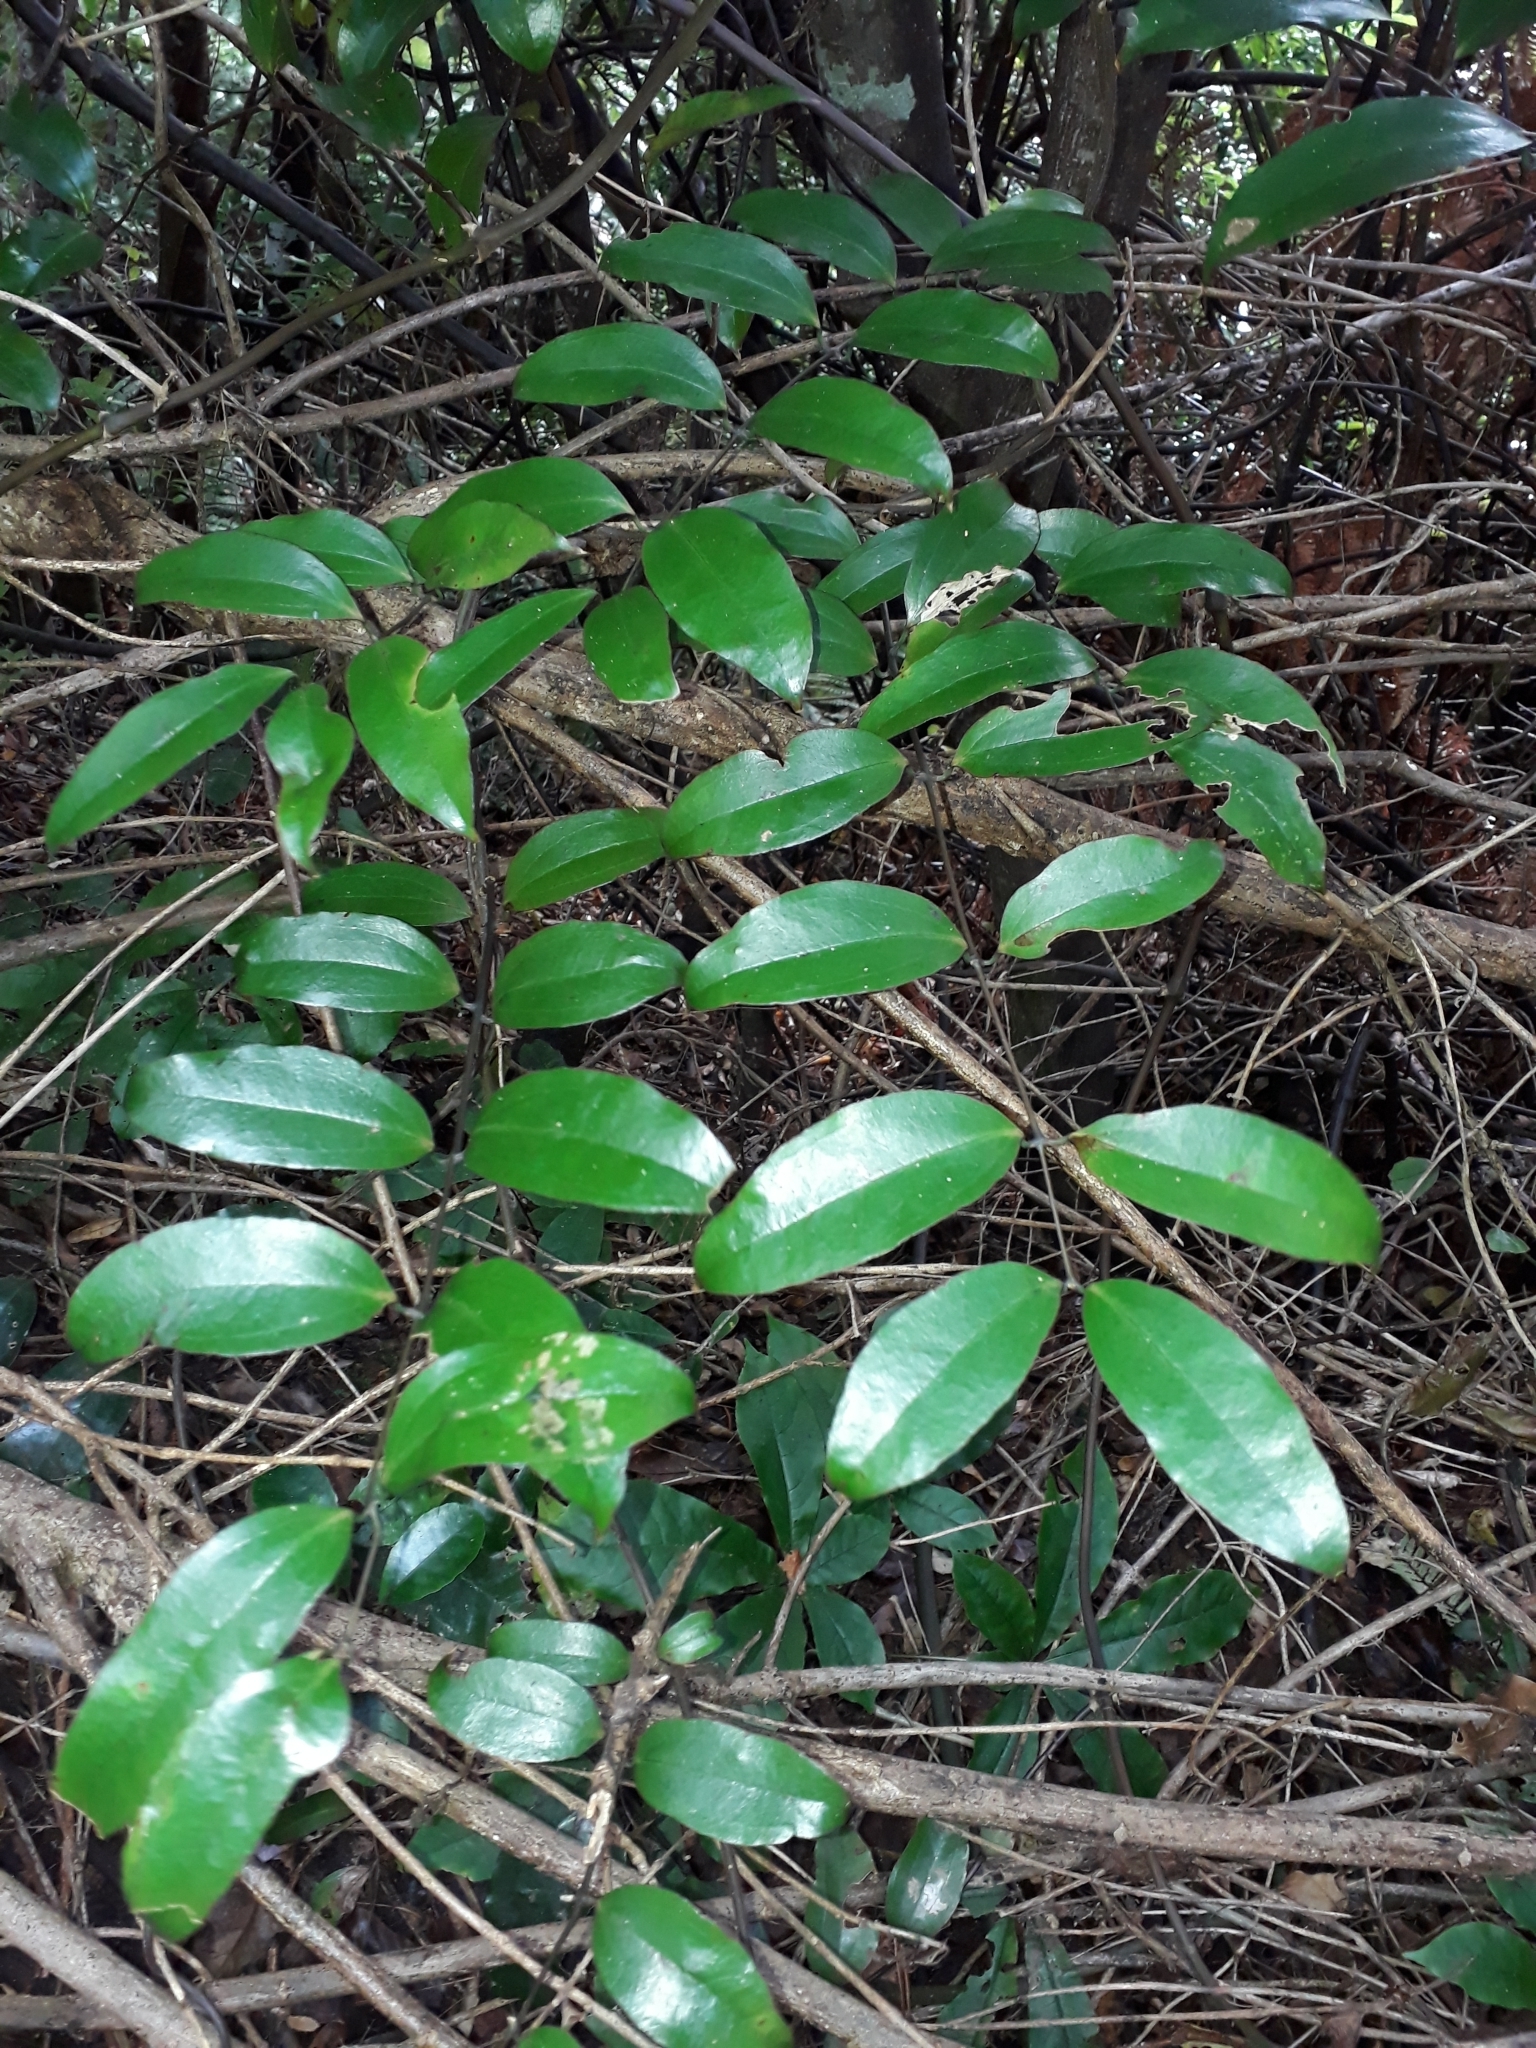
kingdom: Plantae
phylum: Tracheophyta
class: Liliopsida
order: Liliales
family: Ripogonaceae
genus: Ripogonum
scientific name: Ripogonum scandens
